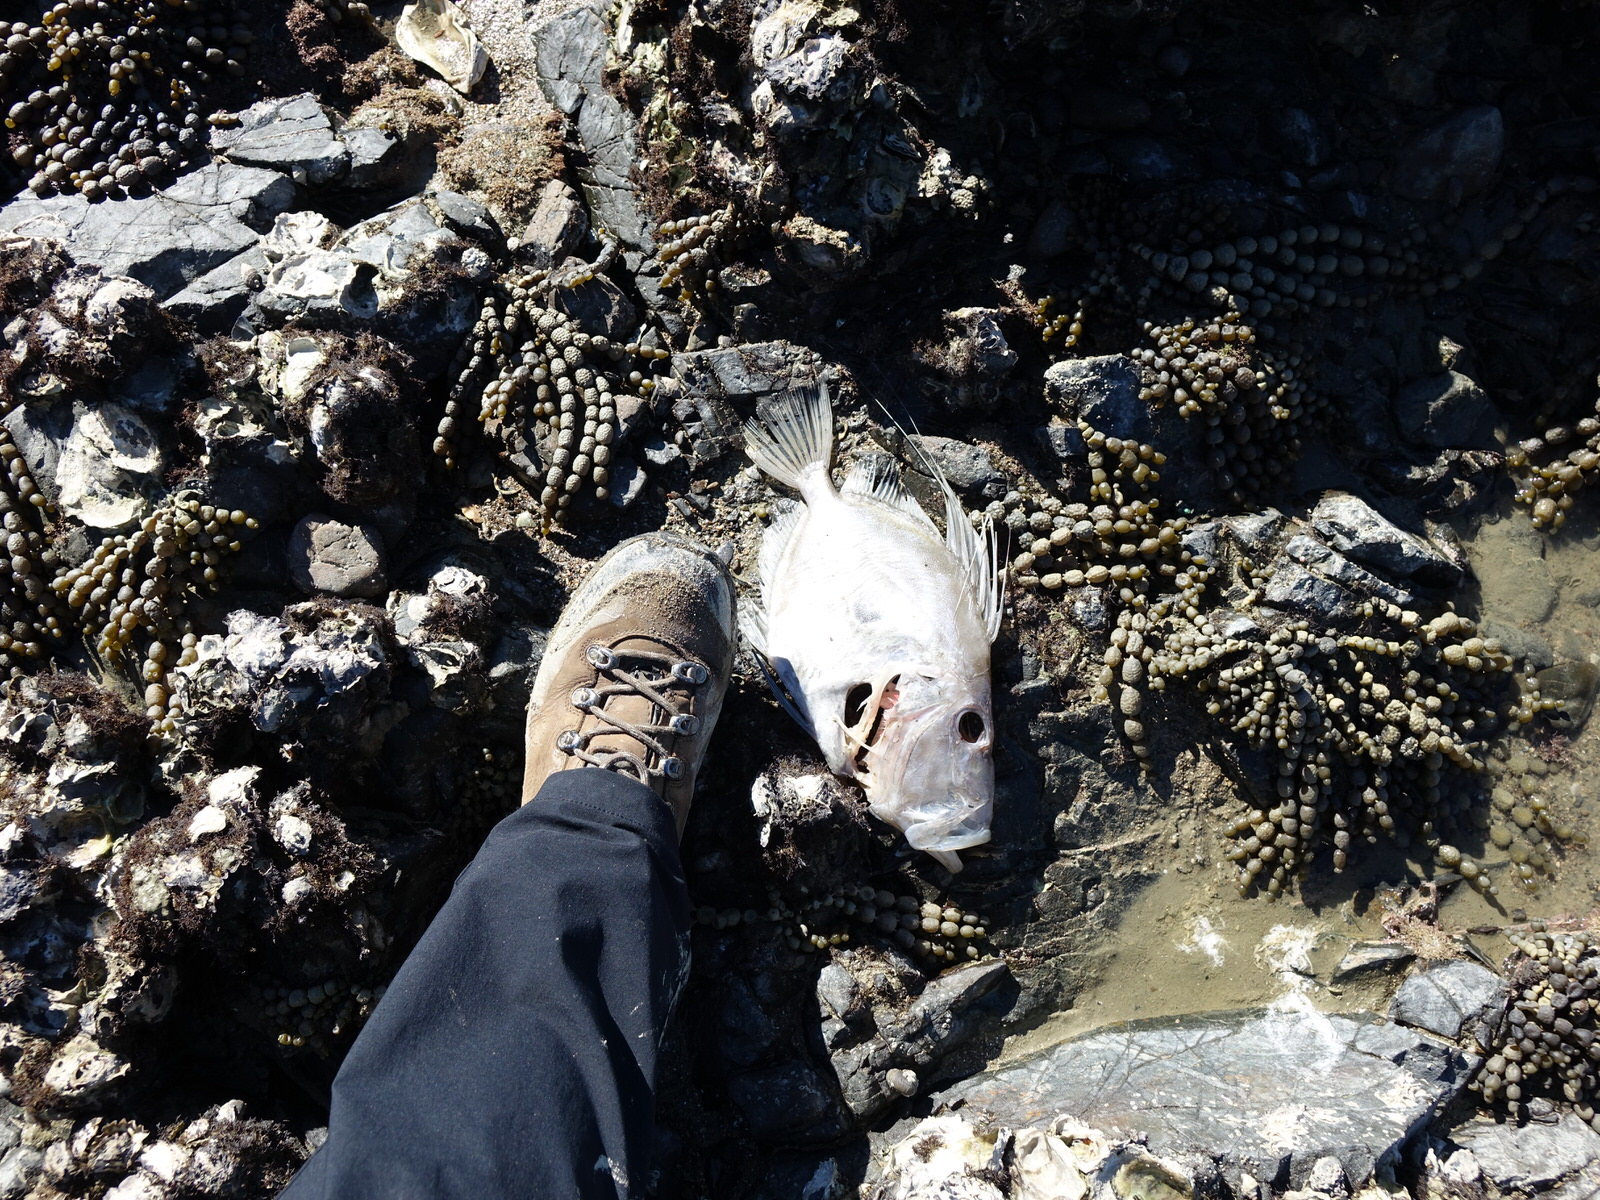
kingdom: Animalia
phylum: Chordata
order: Zeiformes
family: Zeidae
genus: Zeus
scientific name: Zeus faber
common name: John dory
